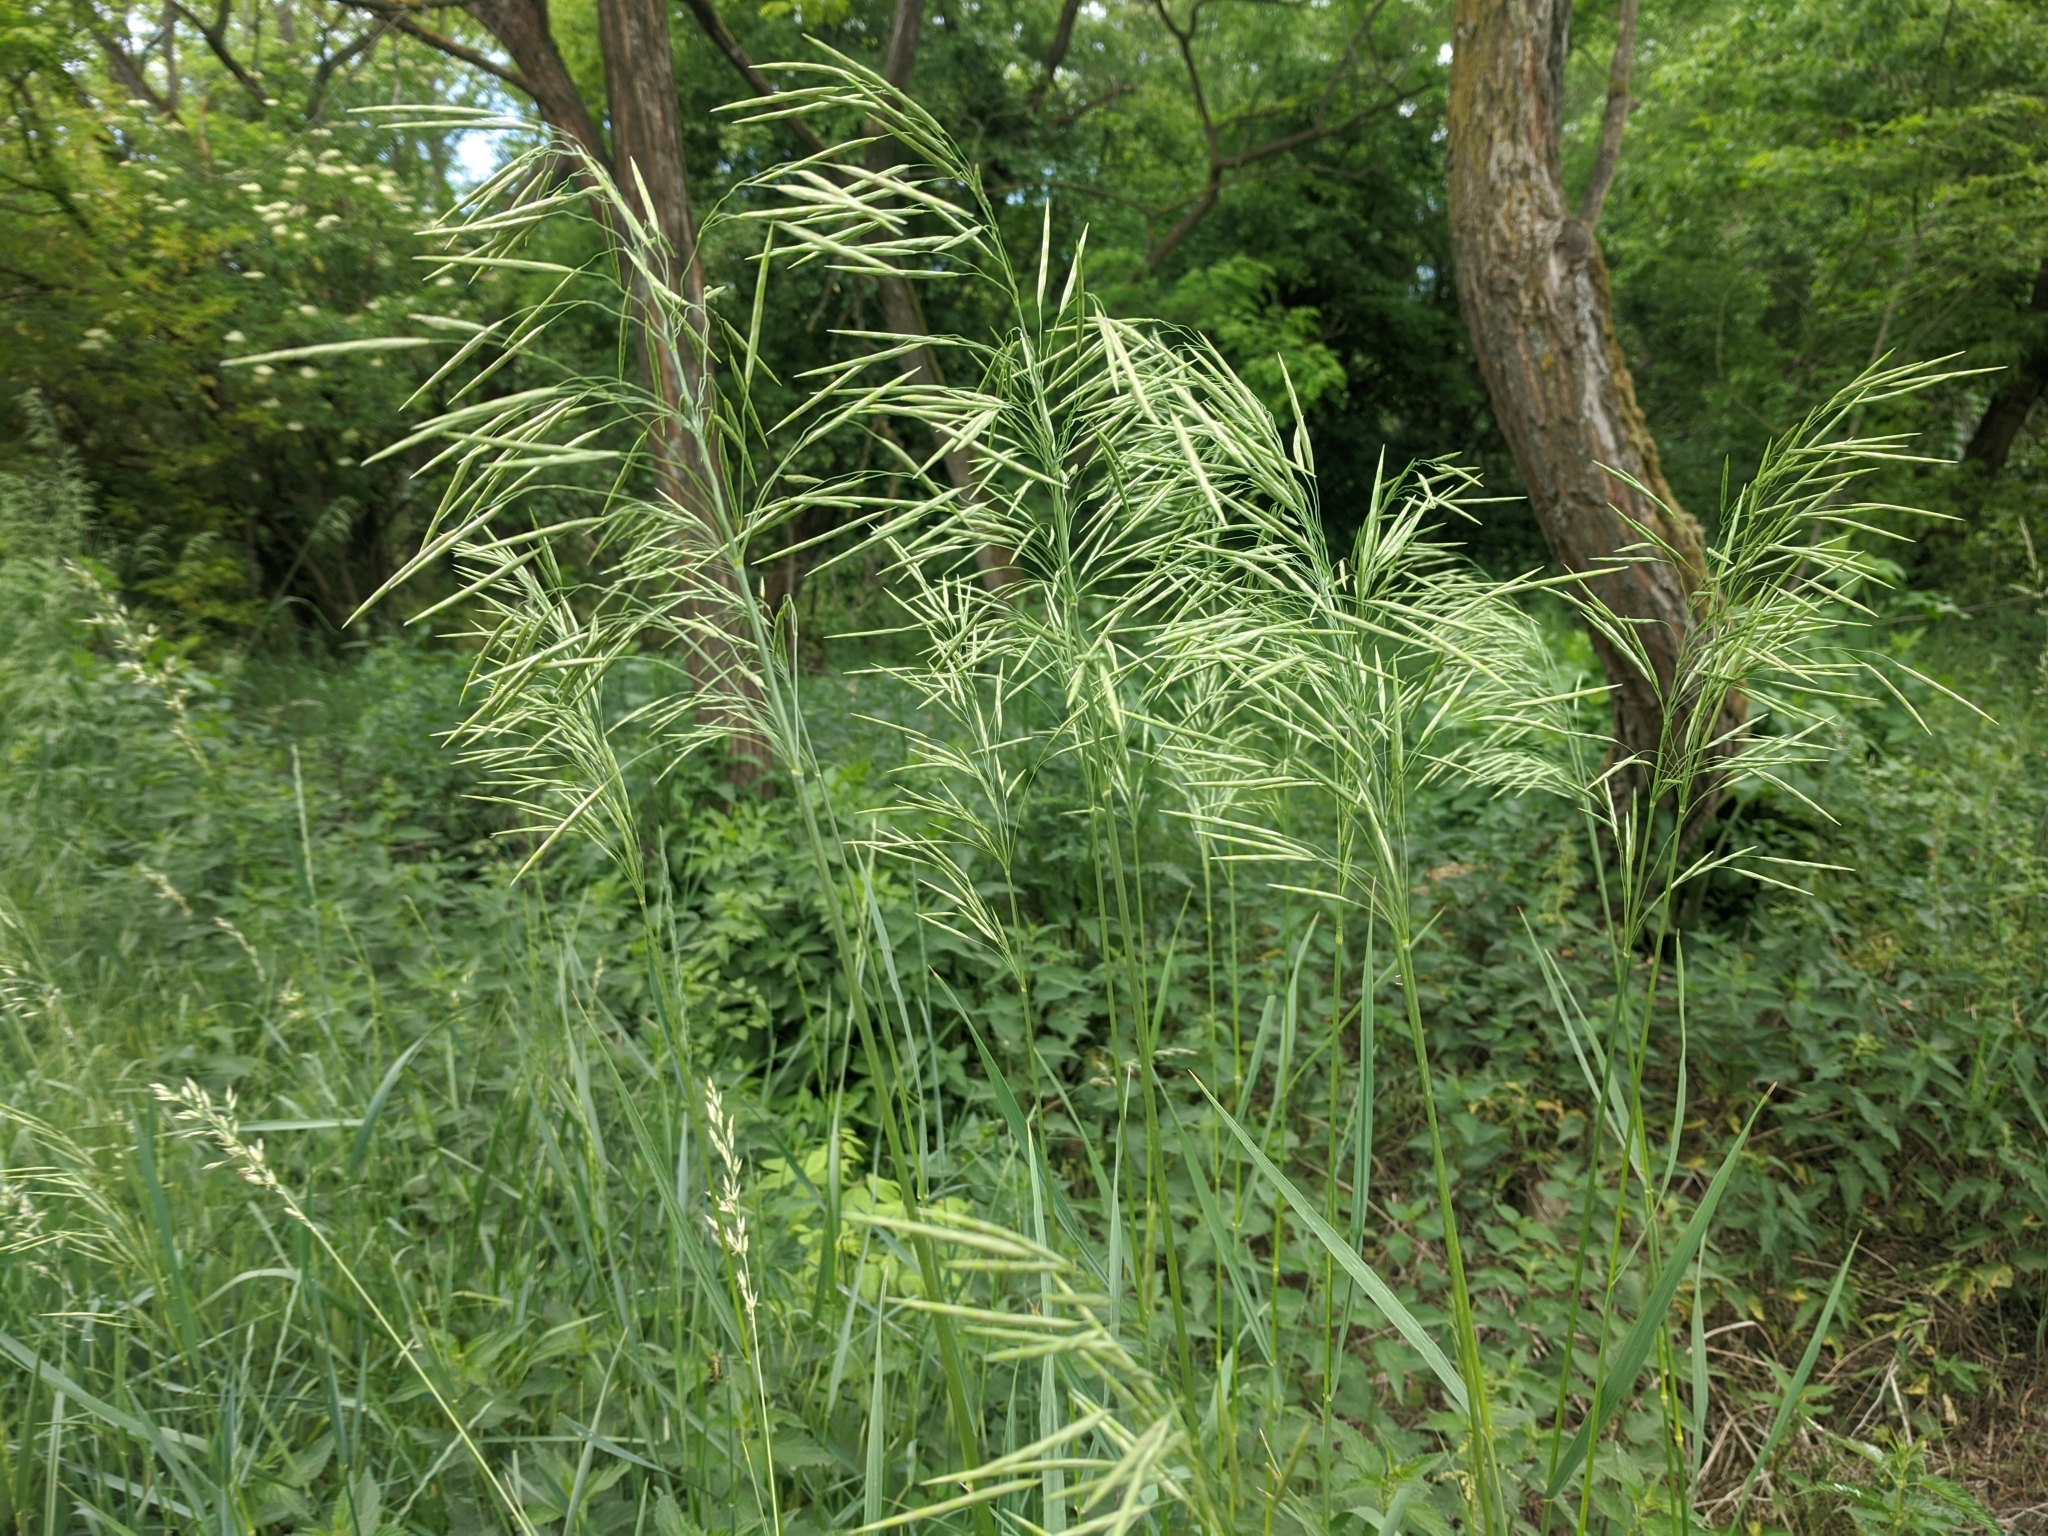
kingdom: Plantae
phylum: Tracheophyta
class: Liliopsida
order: Poales
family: Poaceae
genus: Bromus
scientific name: Bromus inermis
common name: Smooth brome
